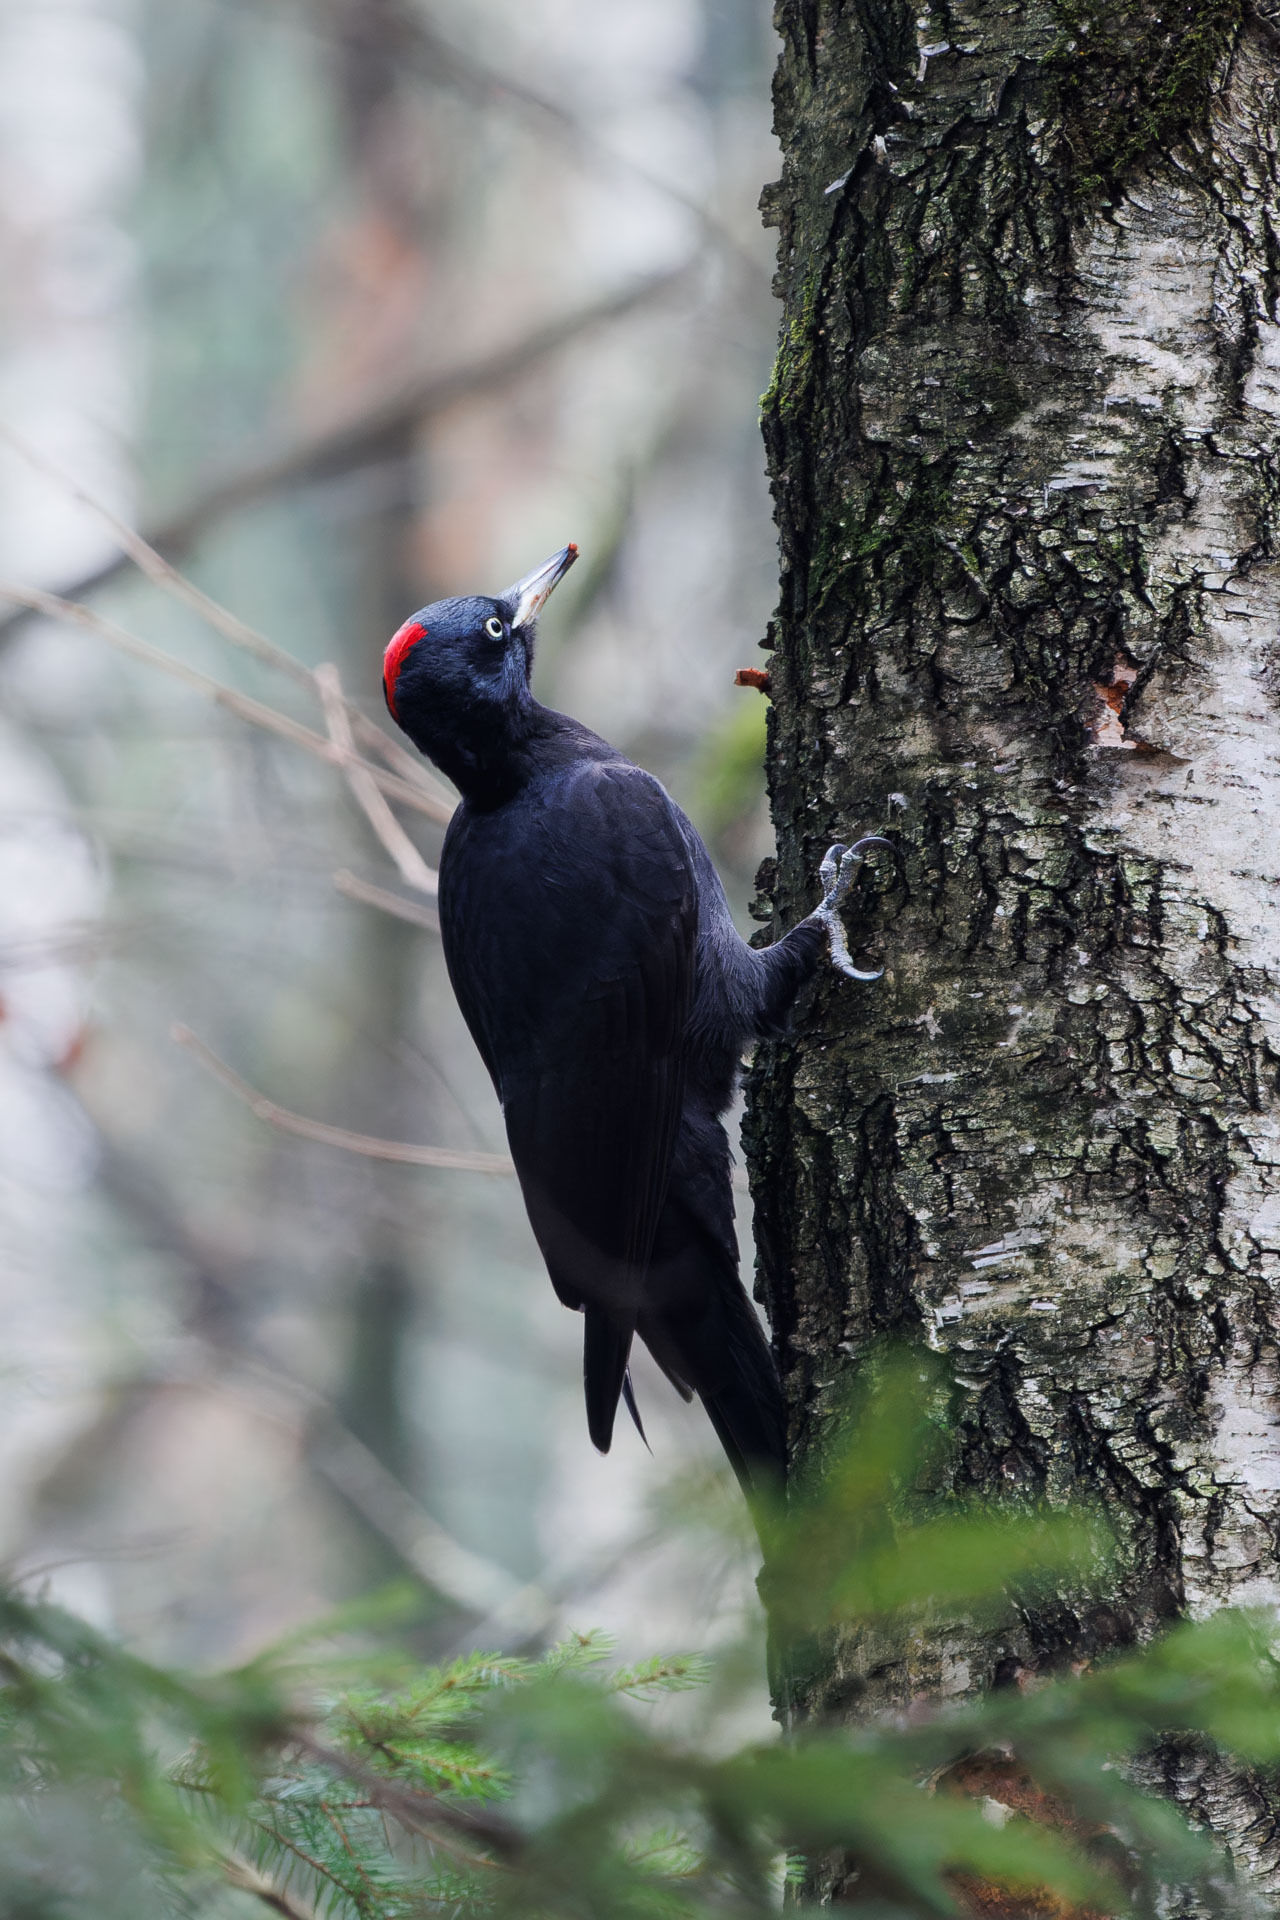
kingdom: Animalia
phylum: Chordata
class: Aves
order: Piciformes
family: Picidae
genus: Dryocopus
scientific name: Dryocopus martius
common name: Black woodpecker
